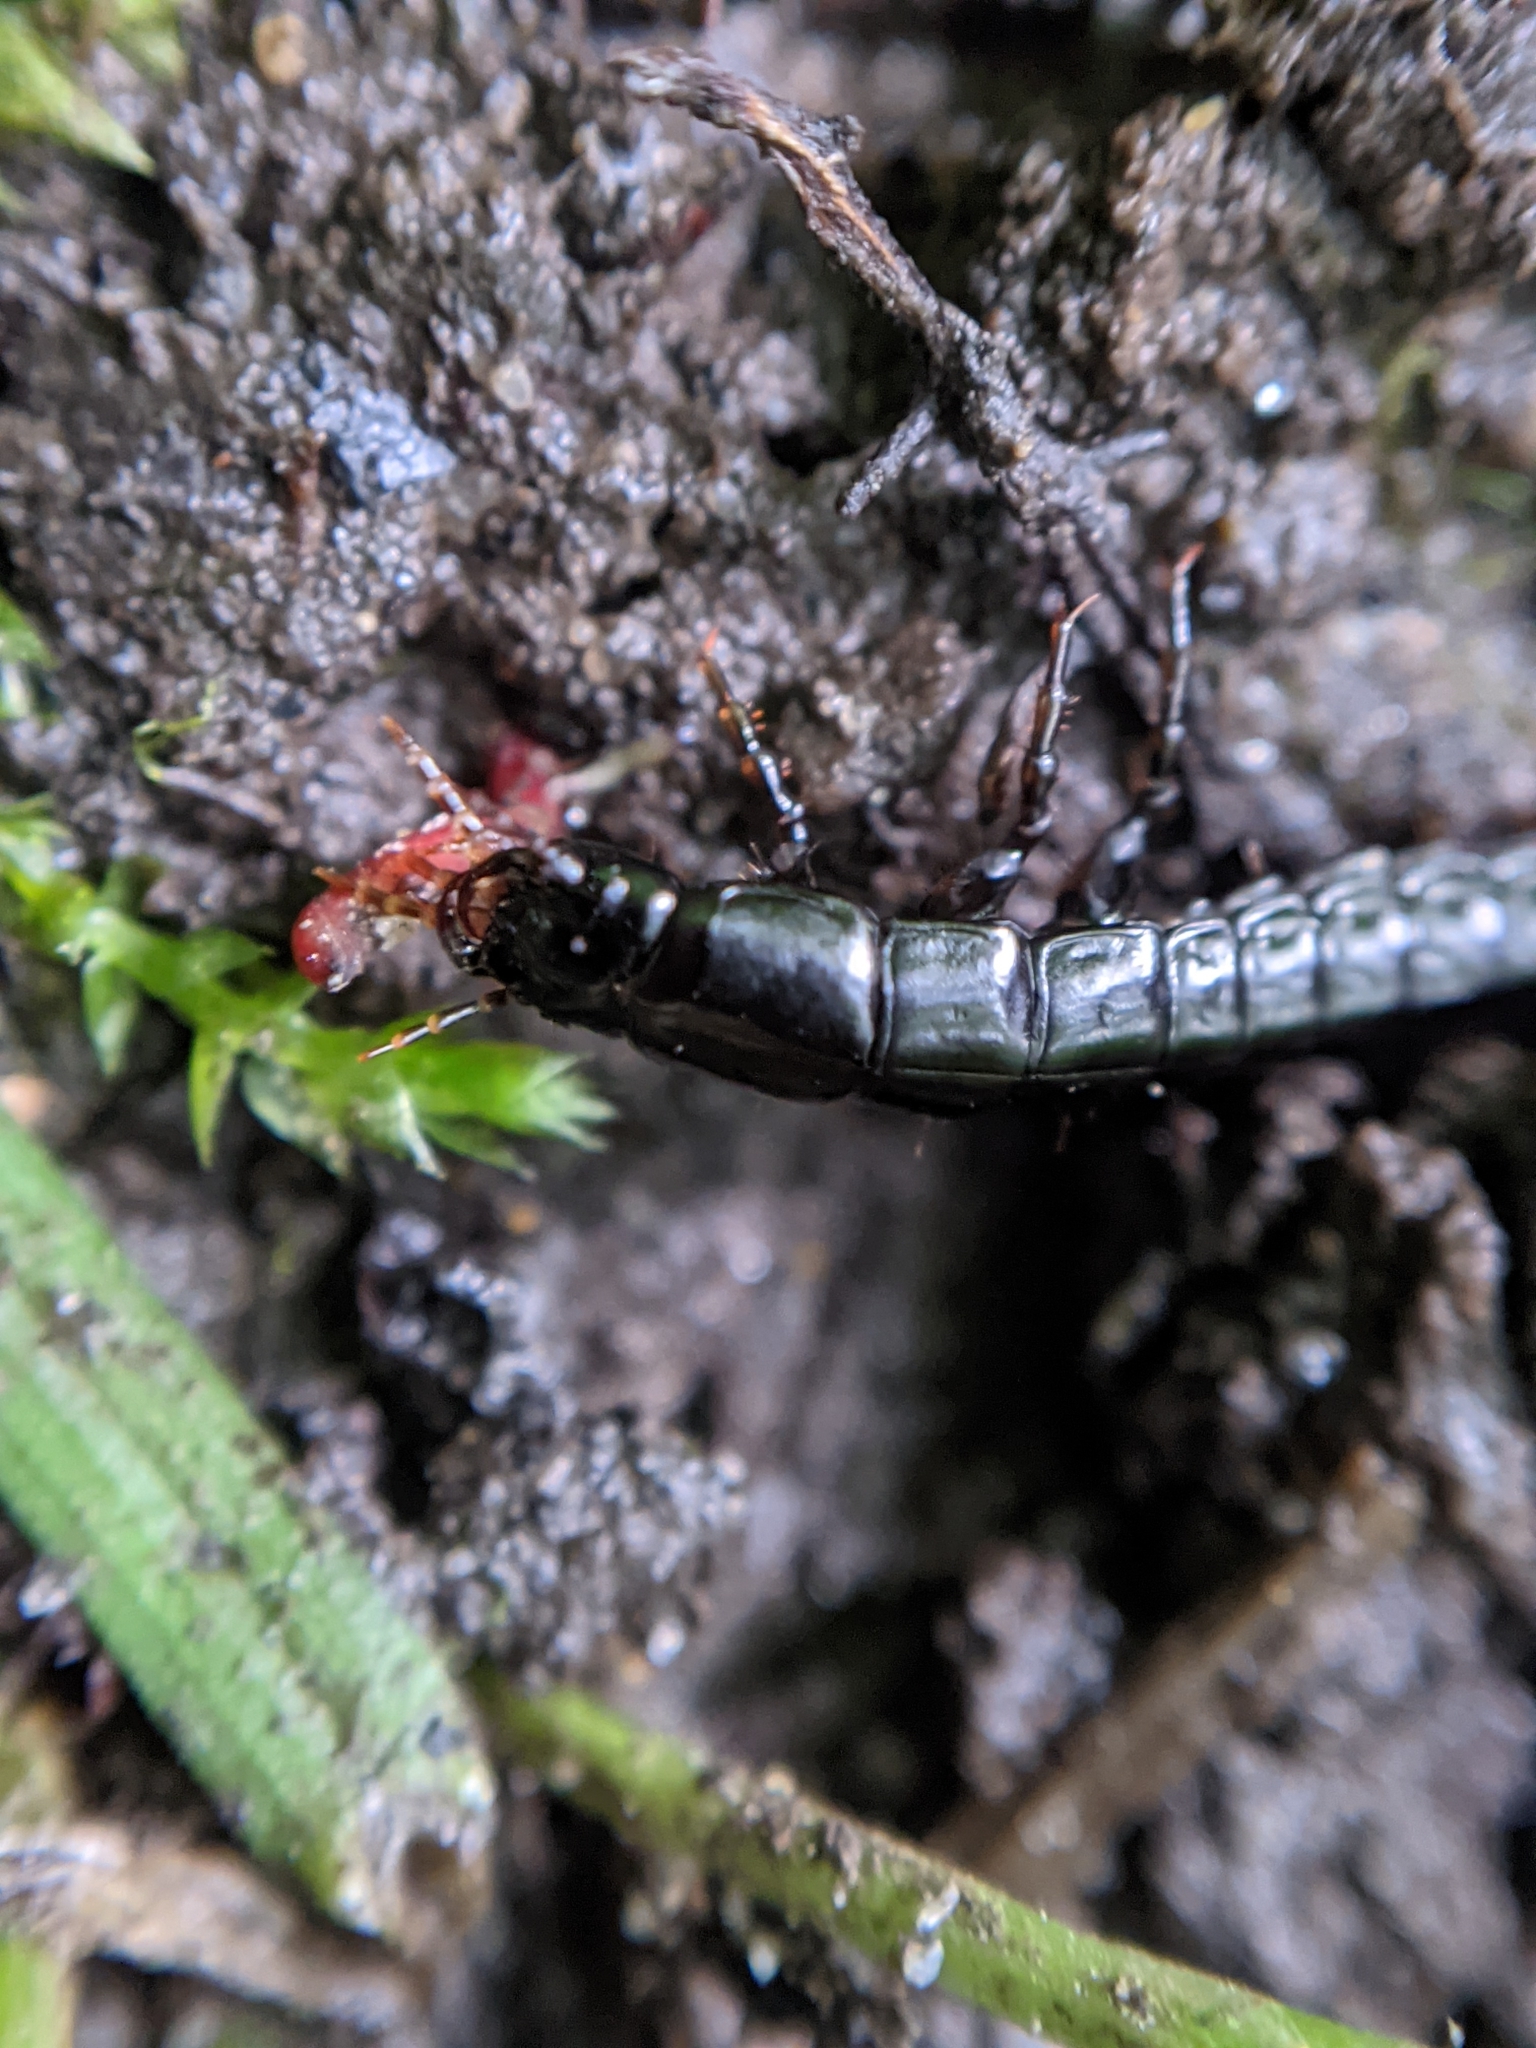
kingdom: Animalia
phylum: Arthropoda
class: Insecta
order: Coleoptera
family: Carabidae
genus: Carabus
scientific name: Carabus
